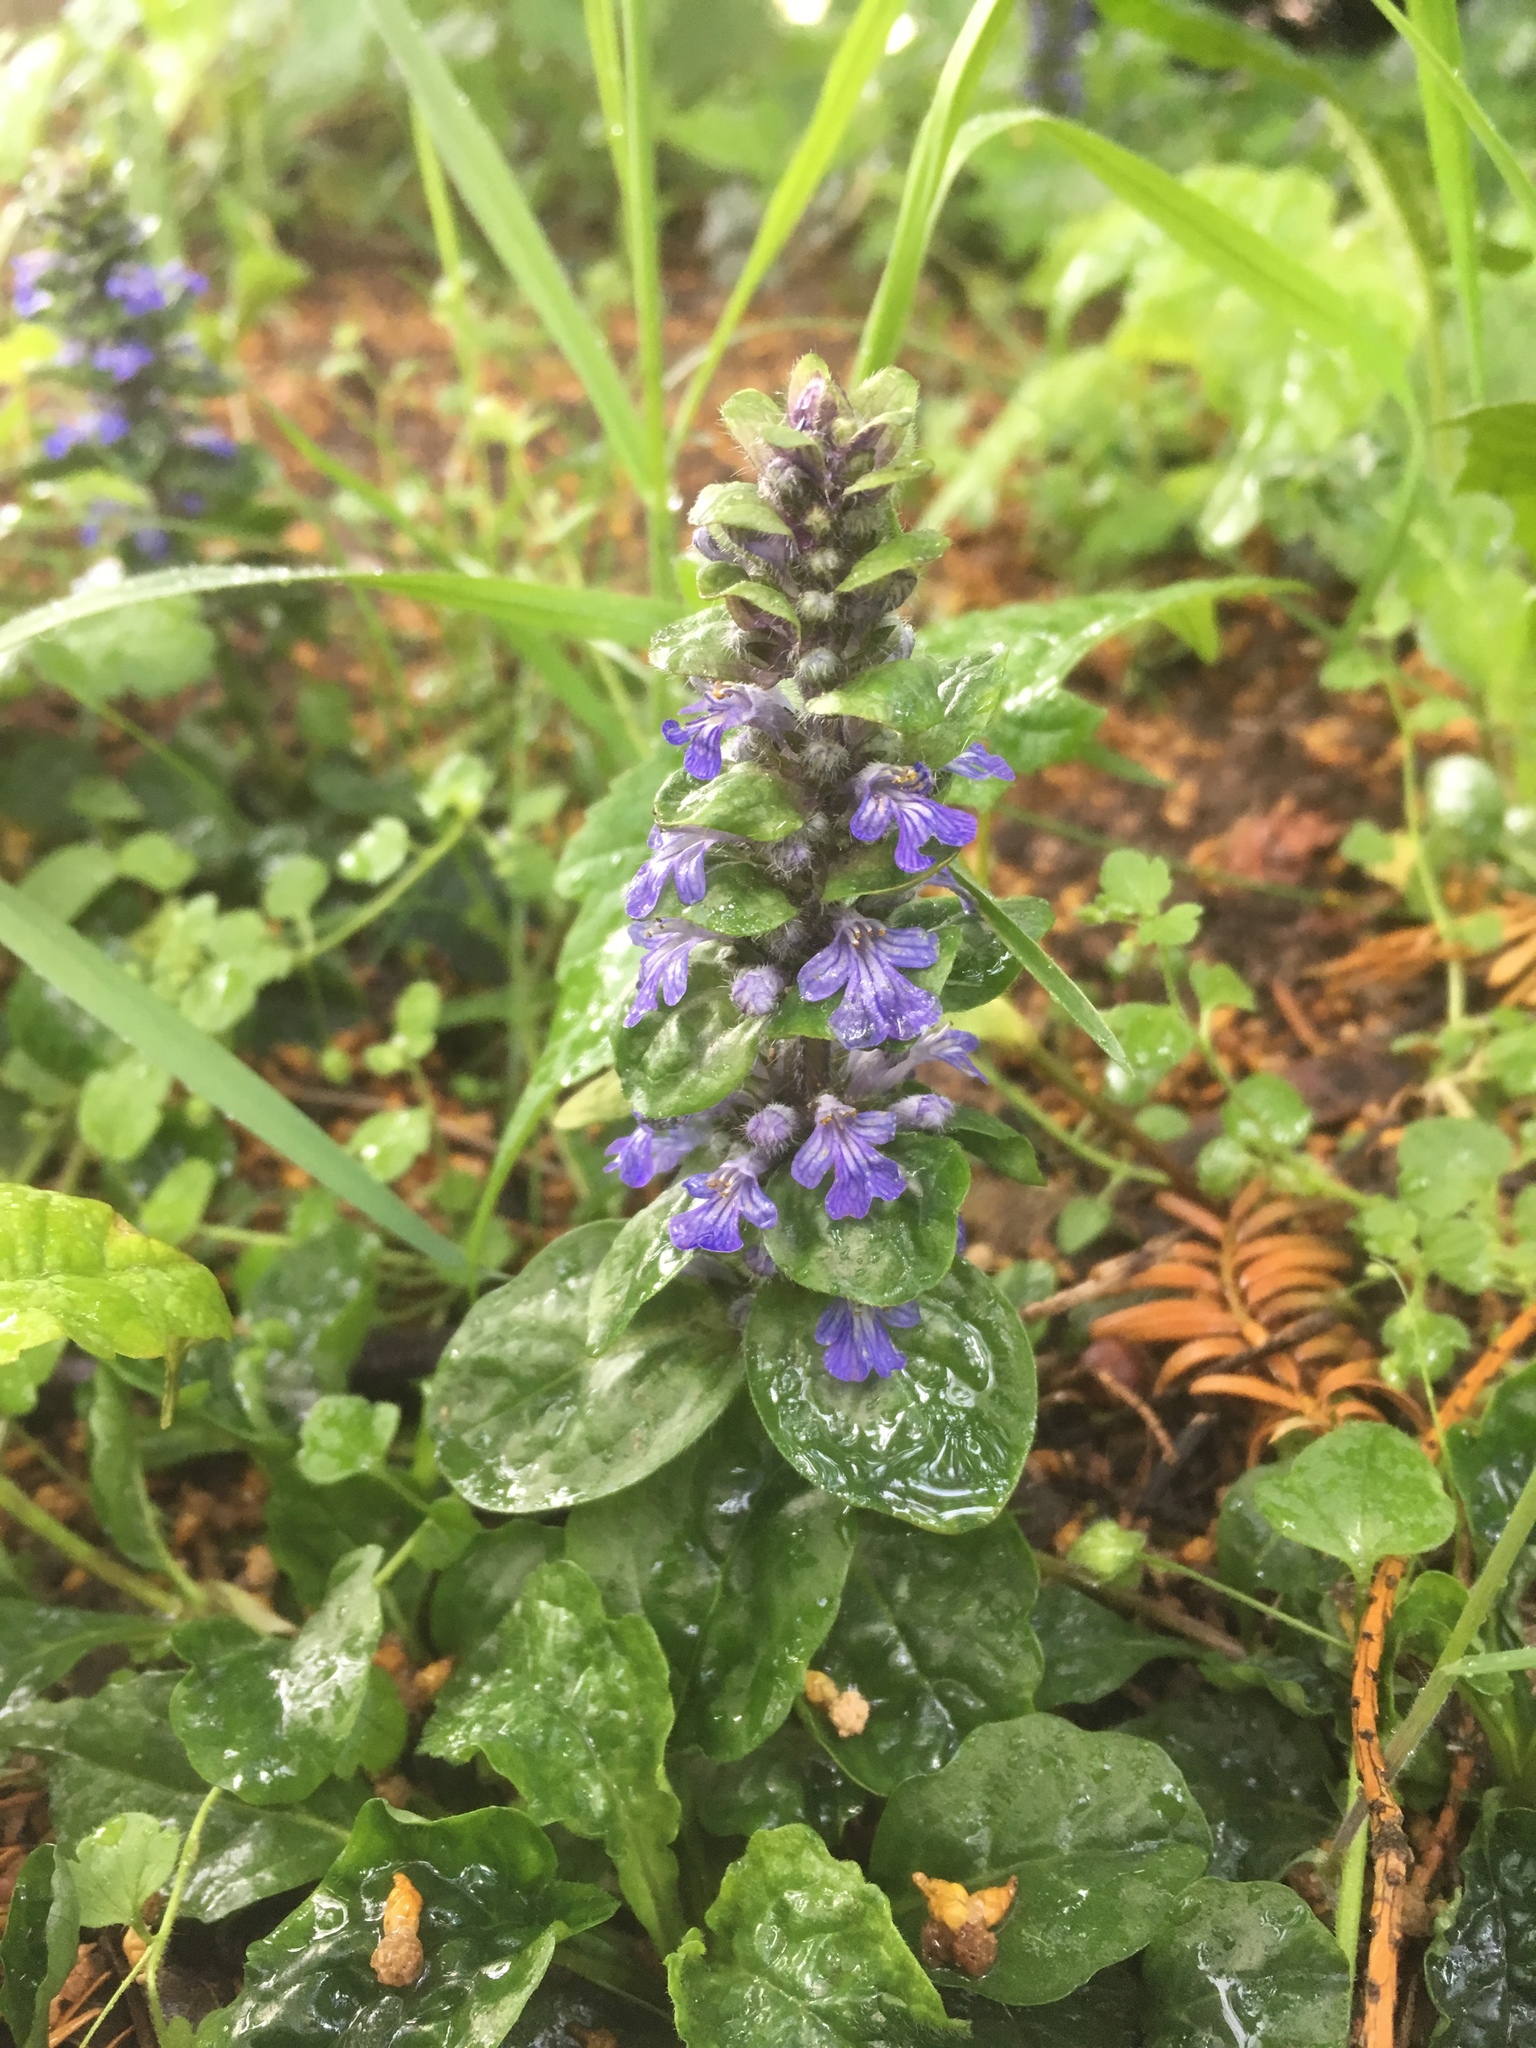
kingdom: Plantae
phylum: Tracheophyta
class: Magnoliopsida
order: Lamiales
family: Lamiaceae
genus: Ajuga
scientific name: Ajuga reptans
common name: Bugle
